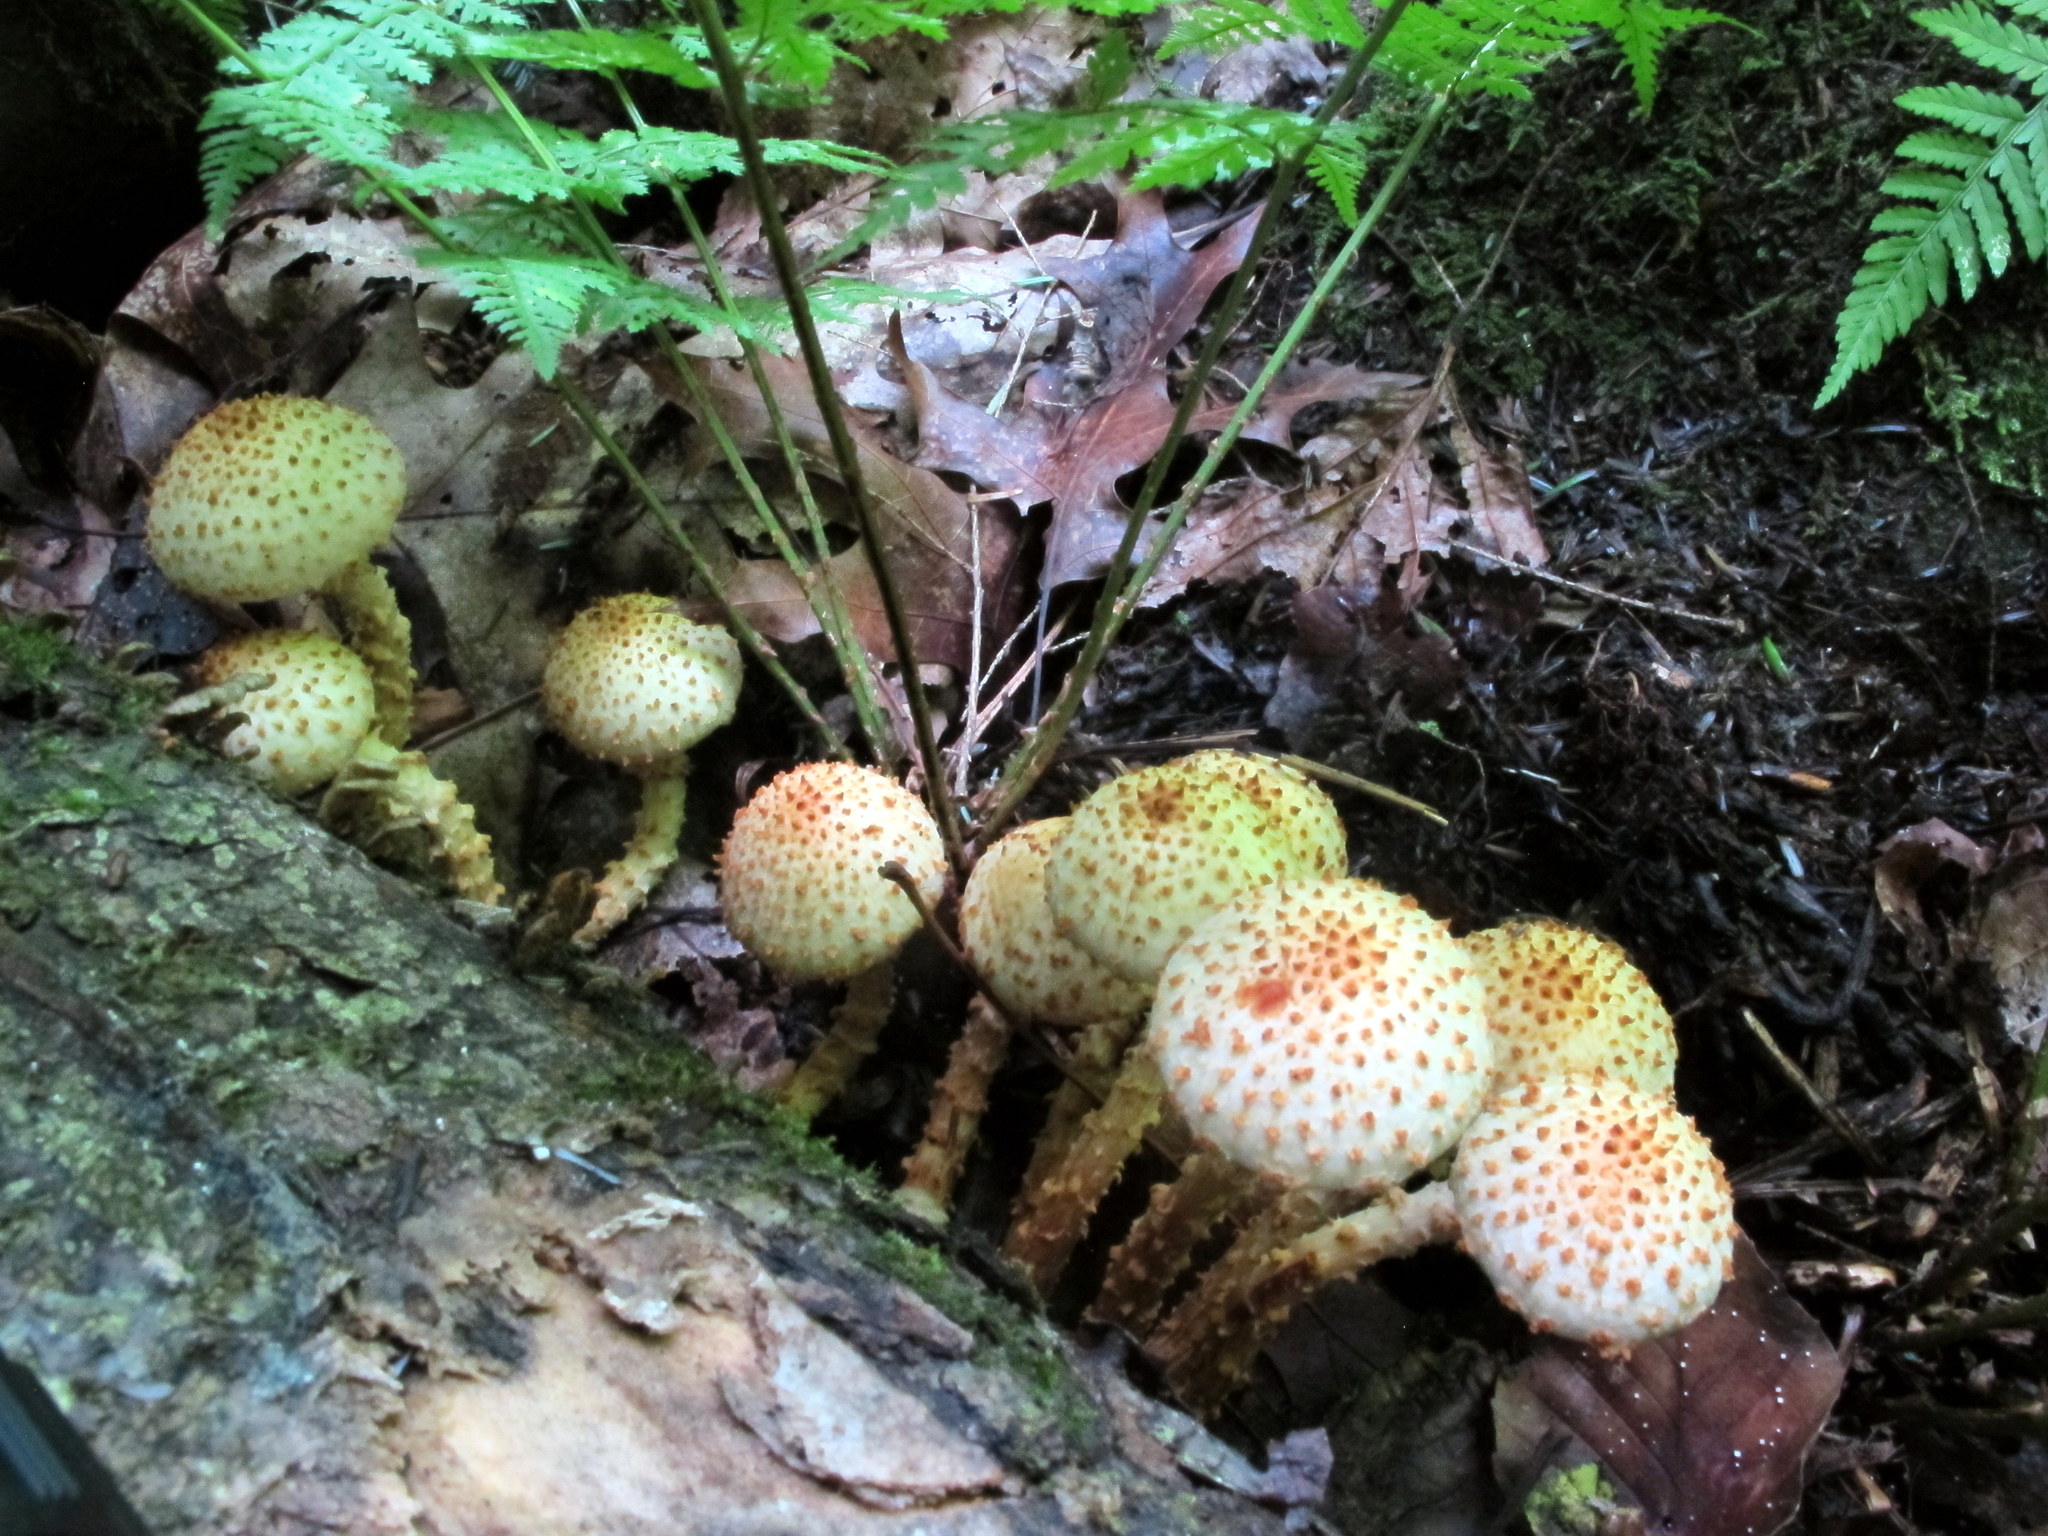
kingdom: Fungi
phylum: Basidiomycota
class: Agaricomycetes
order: Agaricales
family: Strophariaceae
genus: Pholiota
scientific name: Pholiota squarrosoides
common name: Sharp-scaly pholiota
